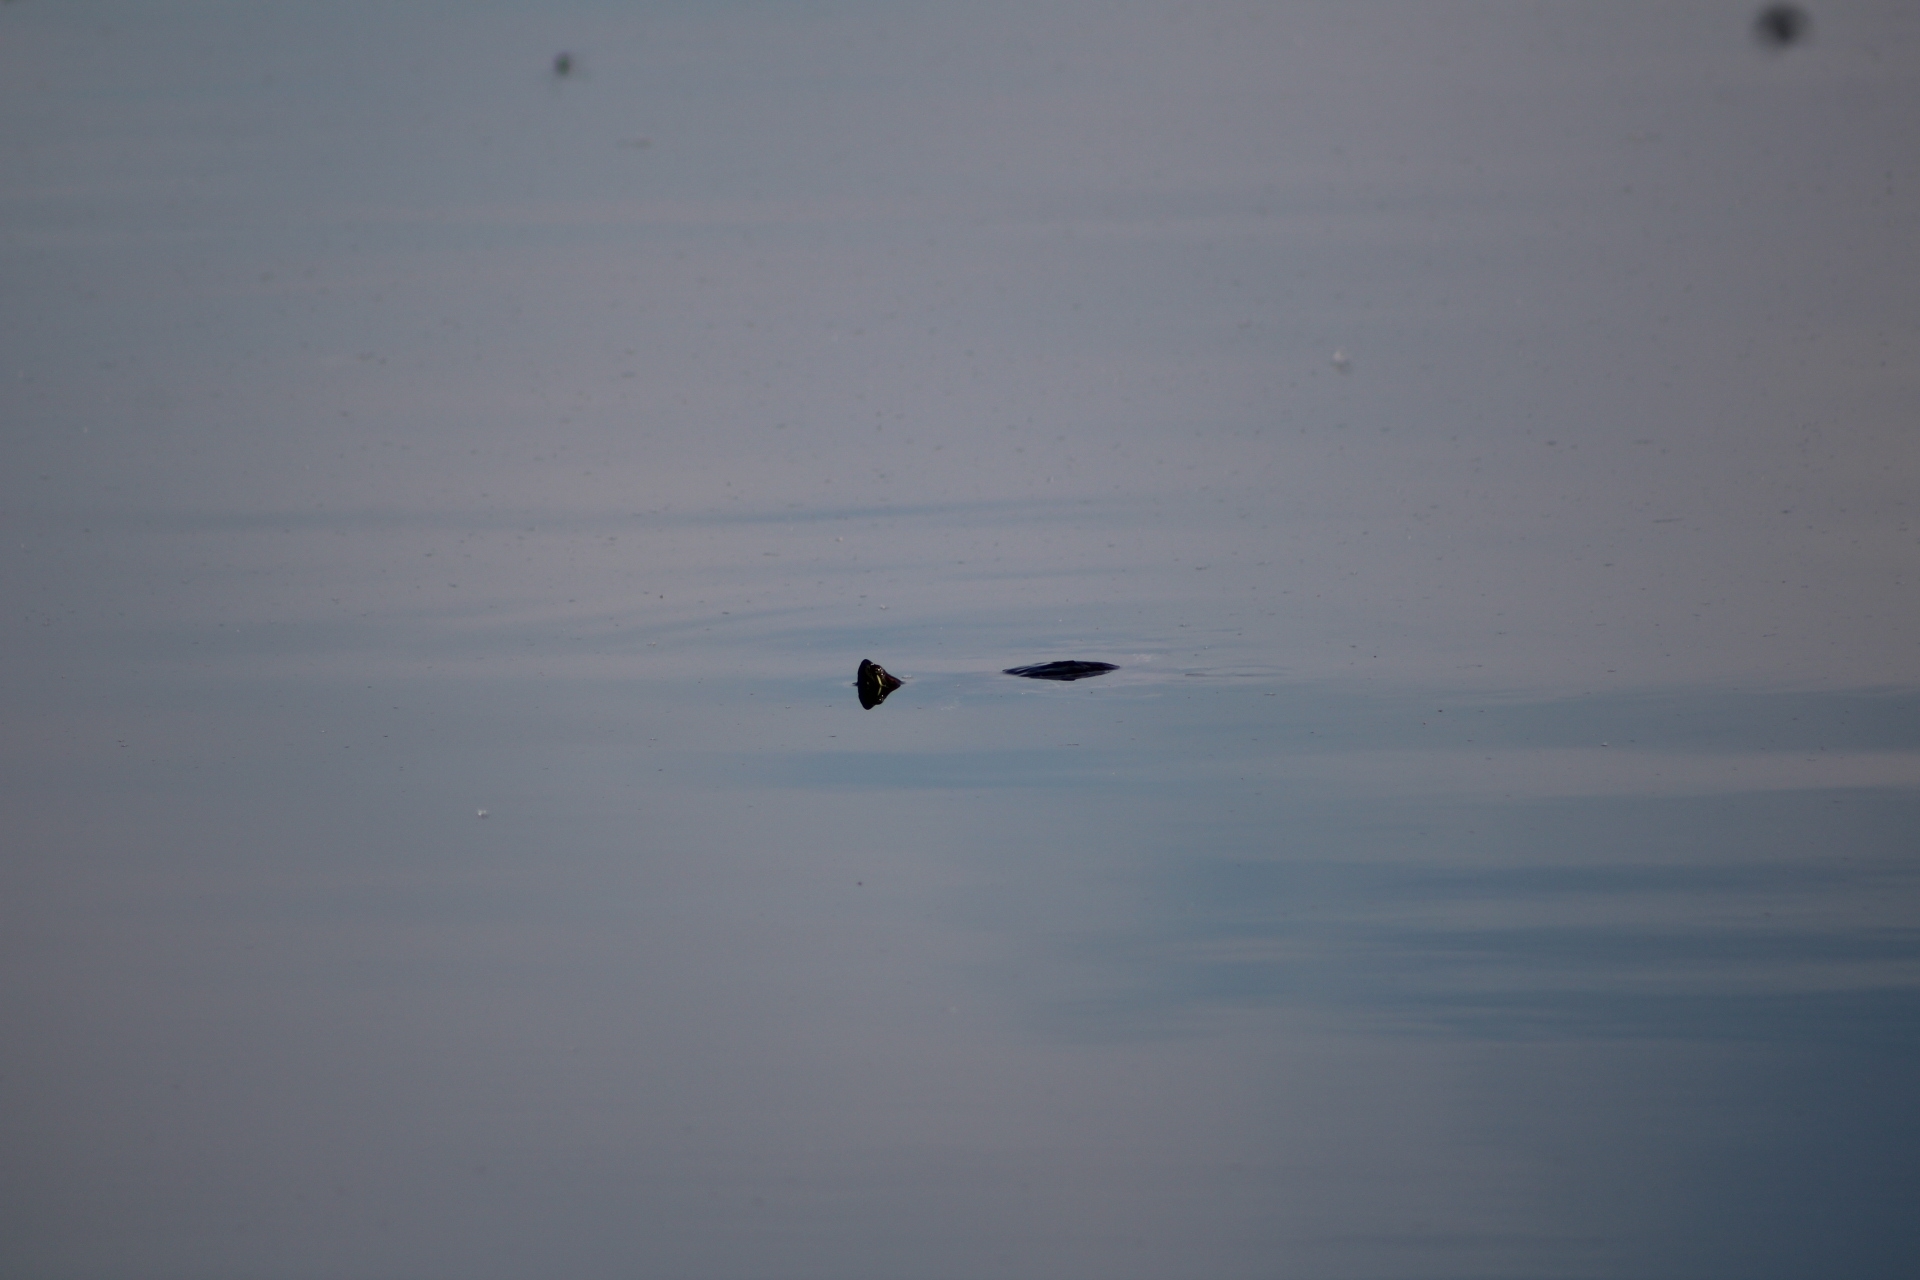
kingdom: Animalia
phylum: Chordata
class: Testudines
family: Emydidae
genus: Trachemys
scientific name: Trachemys scripta
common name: Slider
